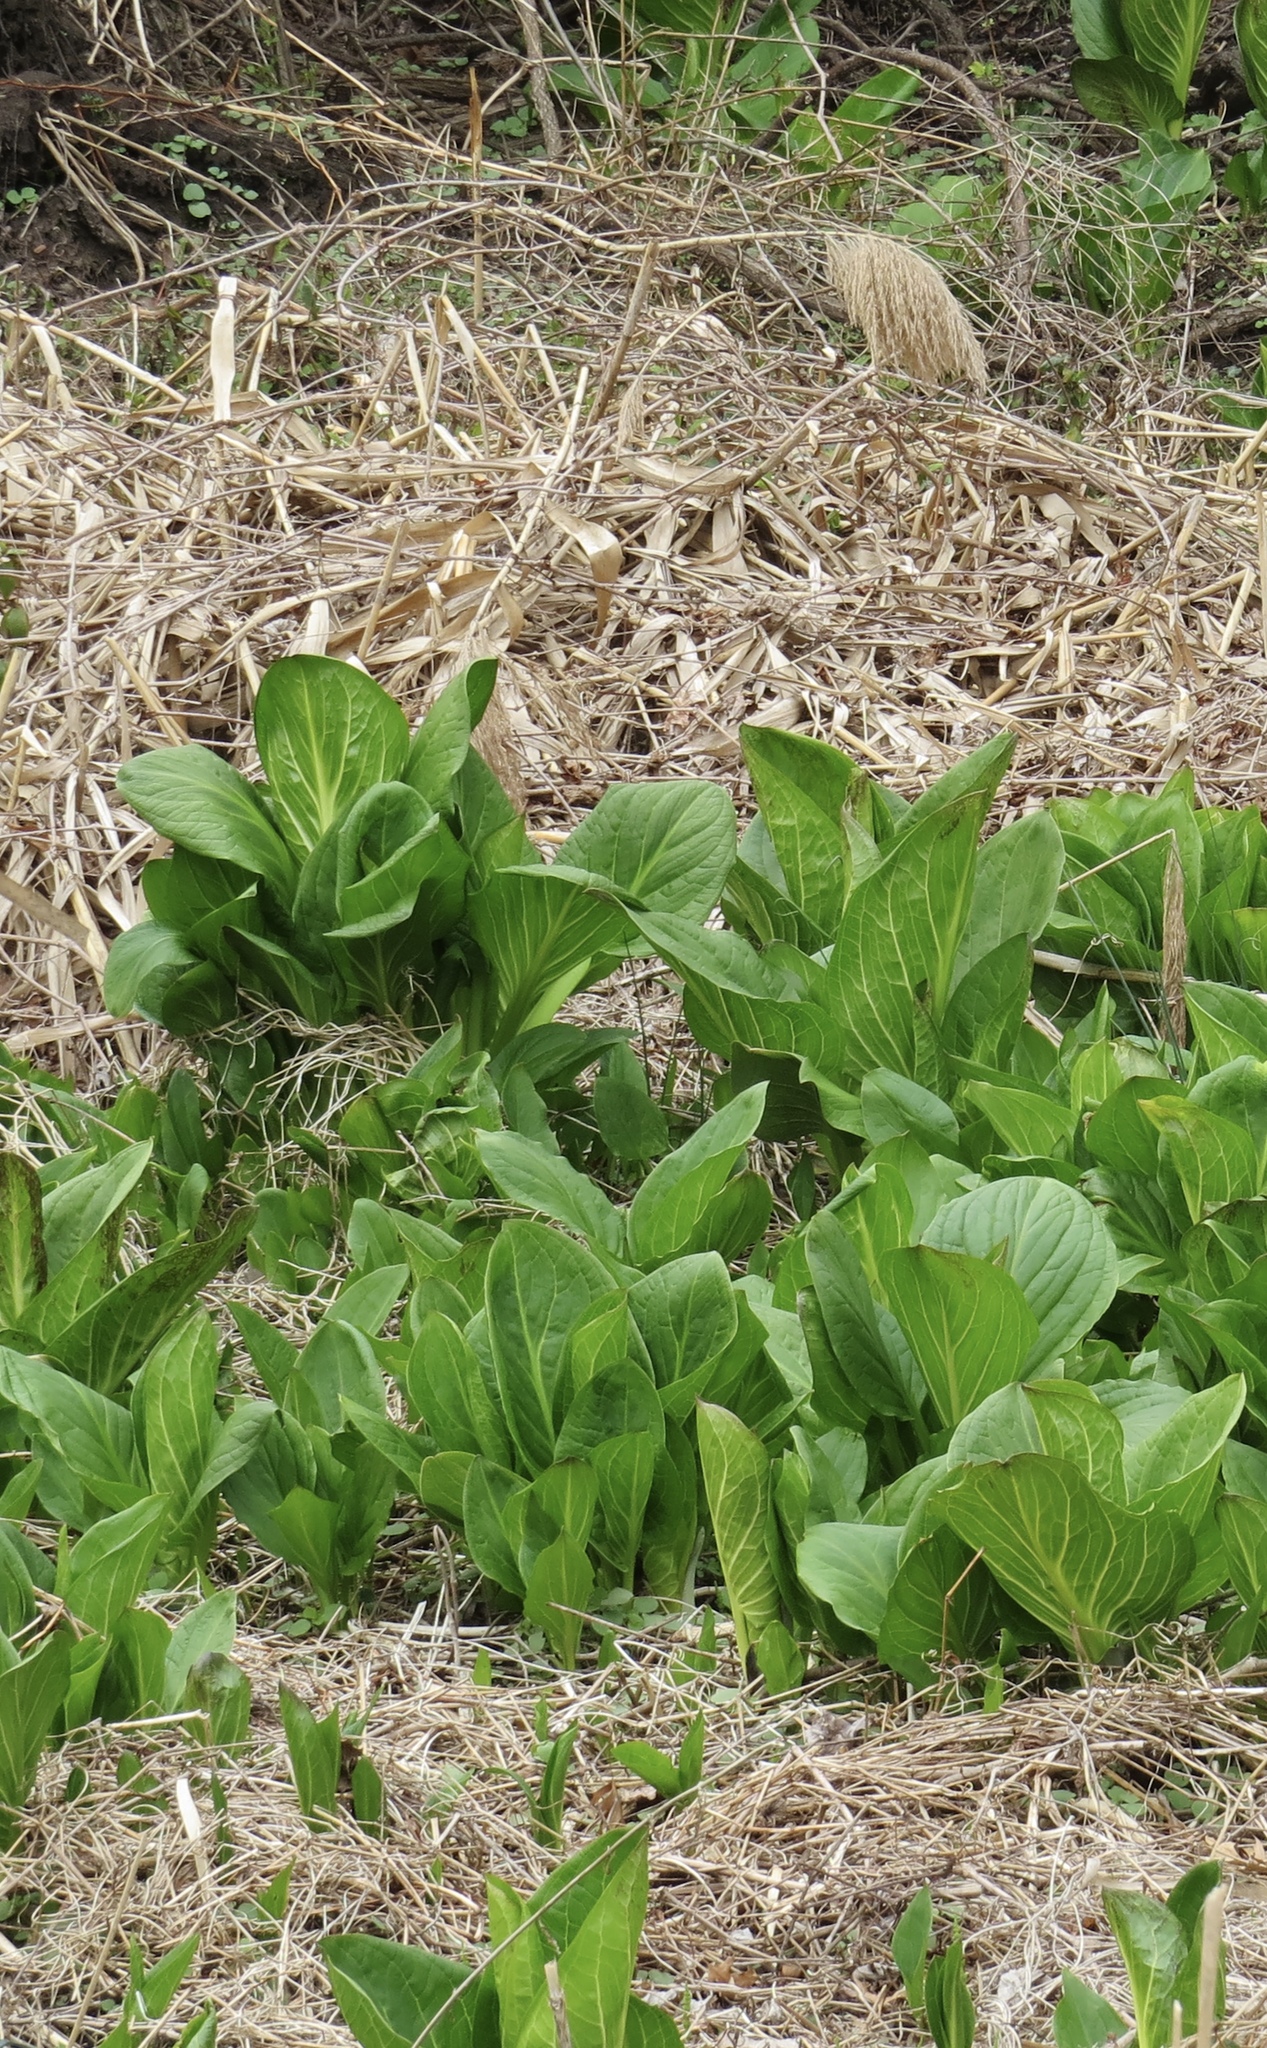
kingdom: Plantae
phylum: Tracheophyta
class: Liliopsida
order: Alismatales
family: Araceae
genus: Symplocarpus
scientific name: Symplocarpus foetidus
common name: Eastern skunk cabbage
